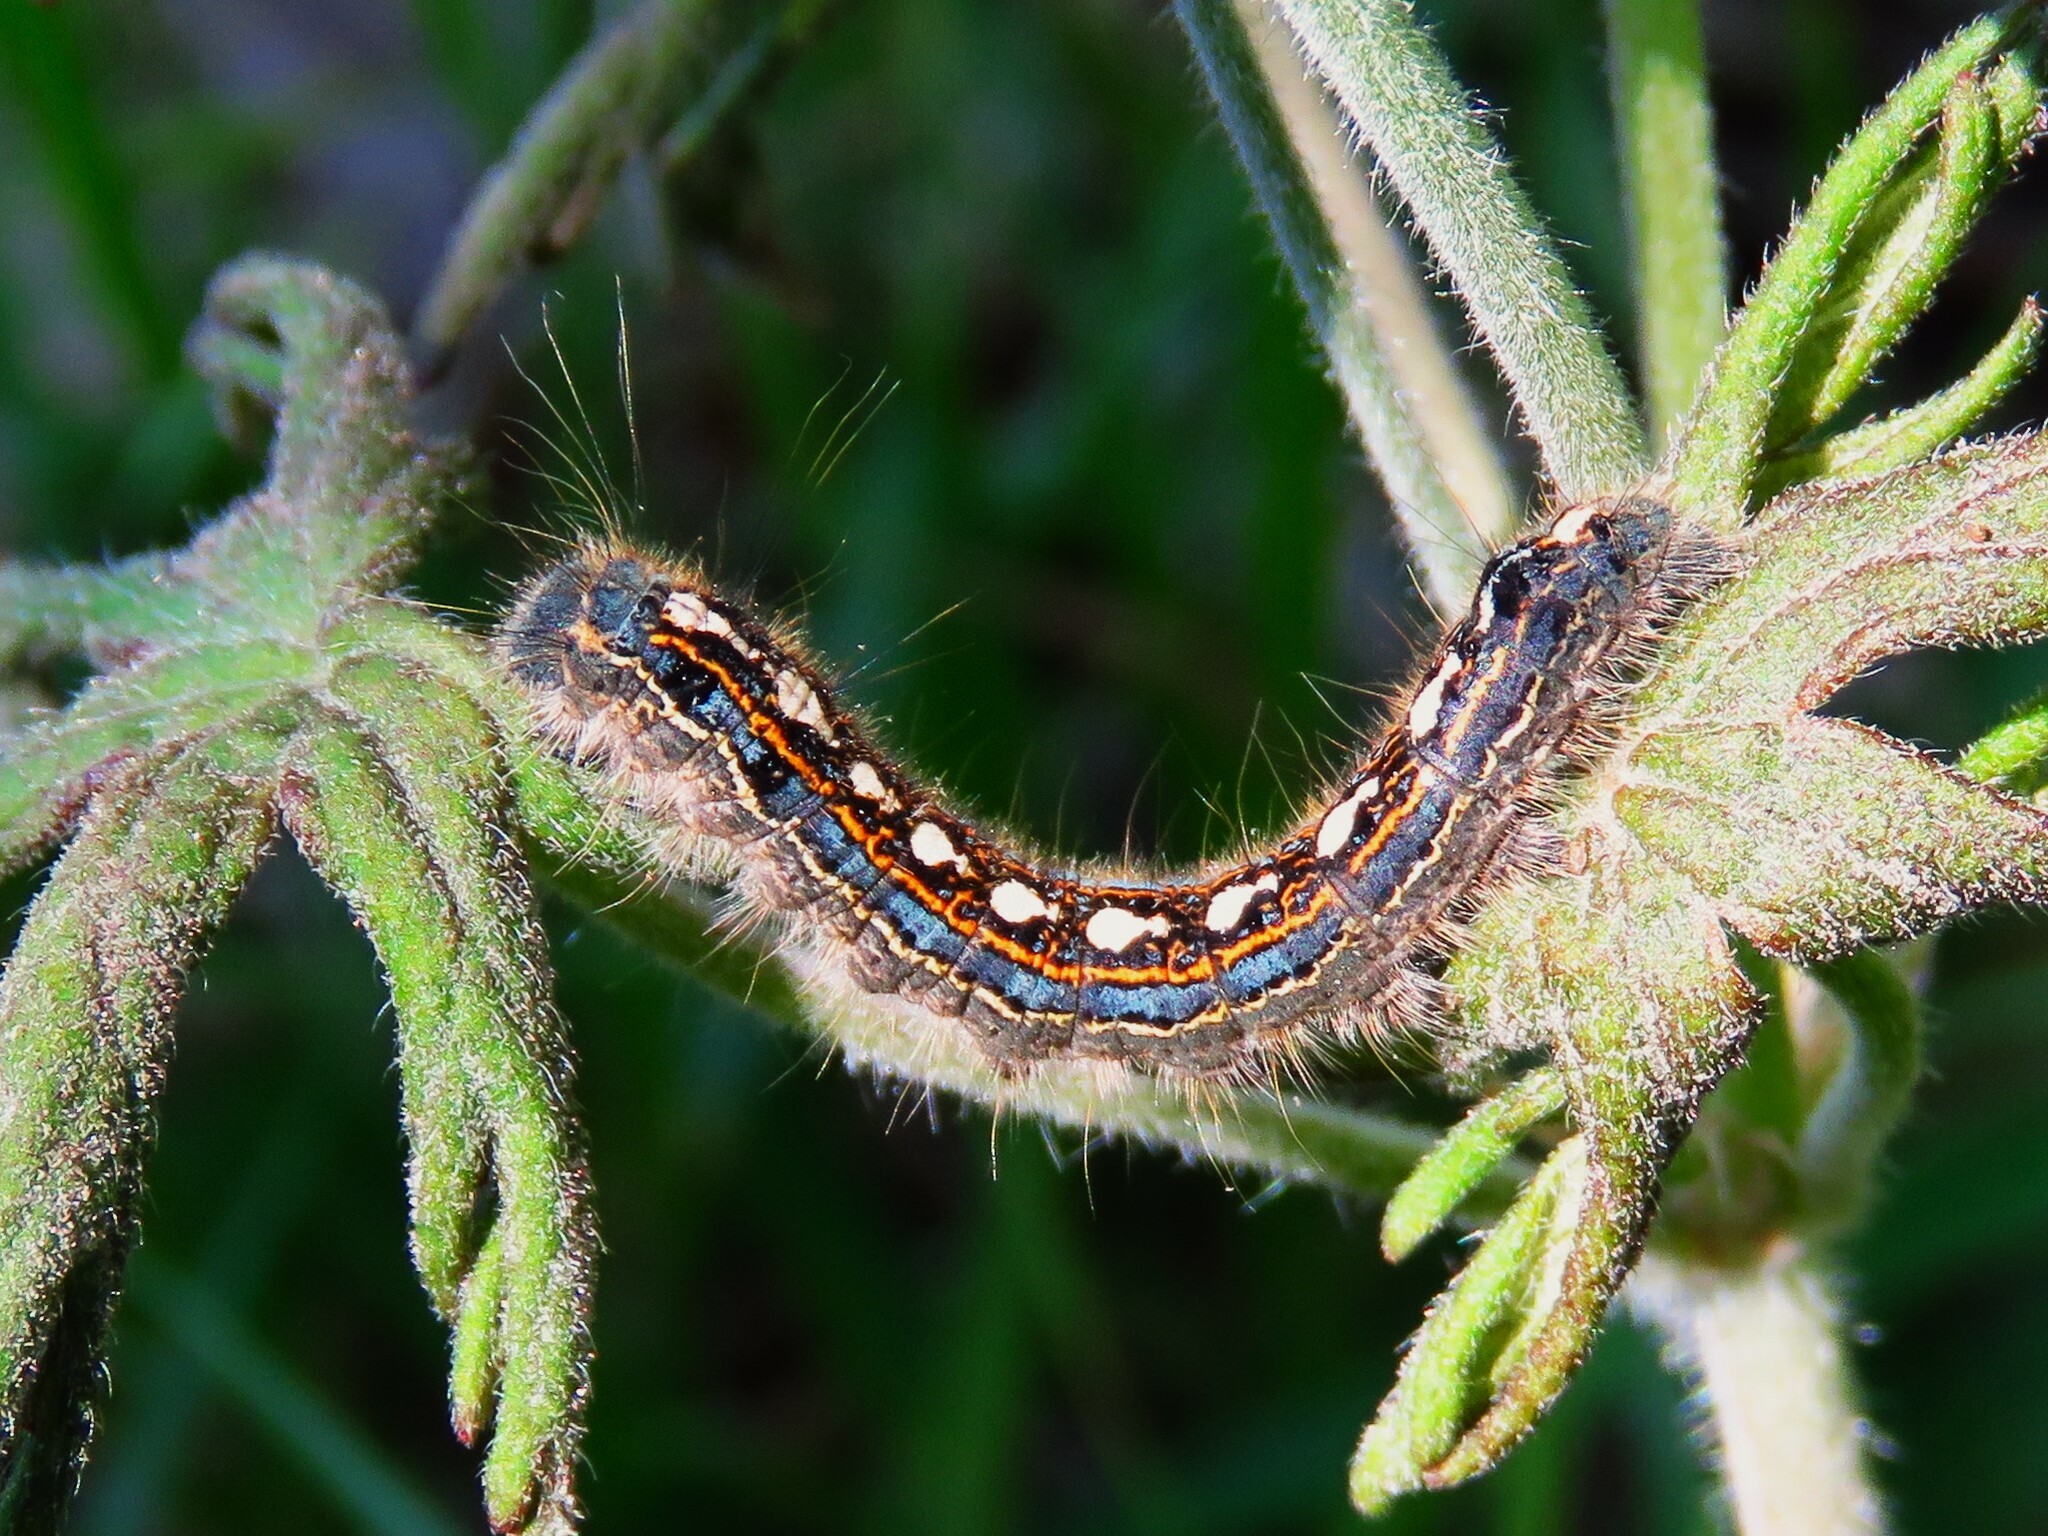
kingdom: Animalia
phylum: Arthropoda
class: Insecta
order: Lepidoptera
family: Lasiocampidae
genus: Malacosoma
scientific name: Malacosoma disstria
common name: Forest tent caterpillar
